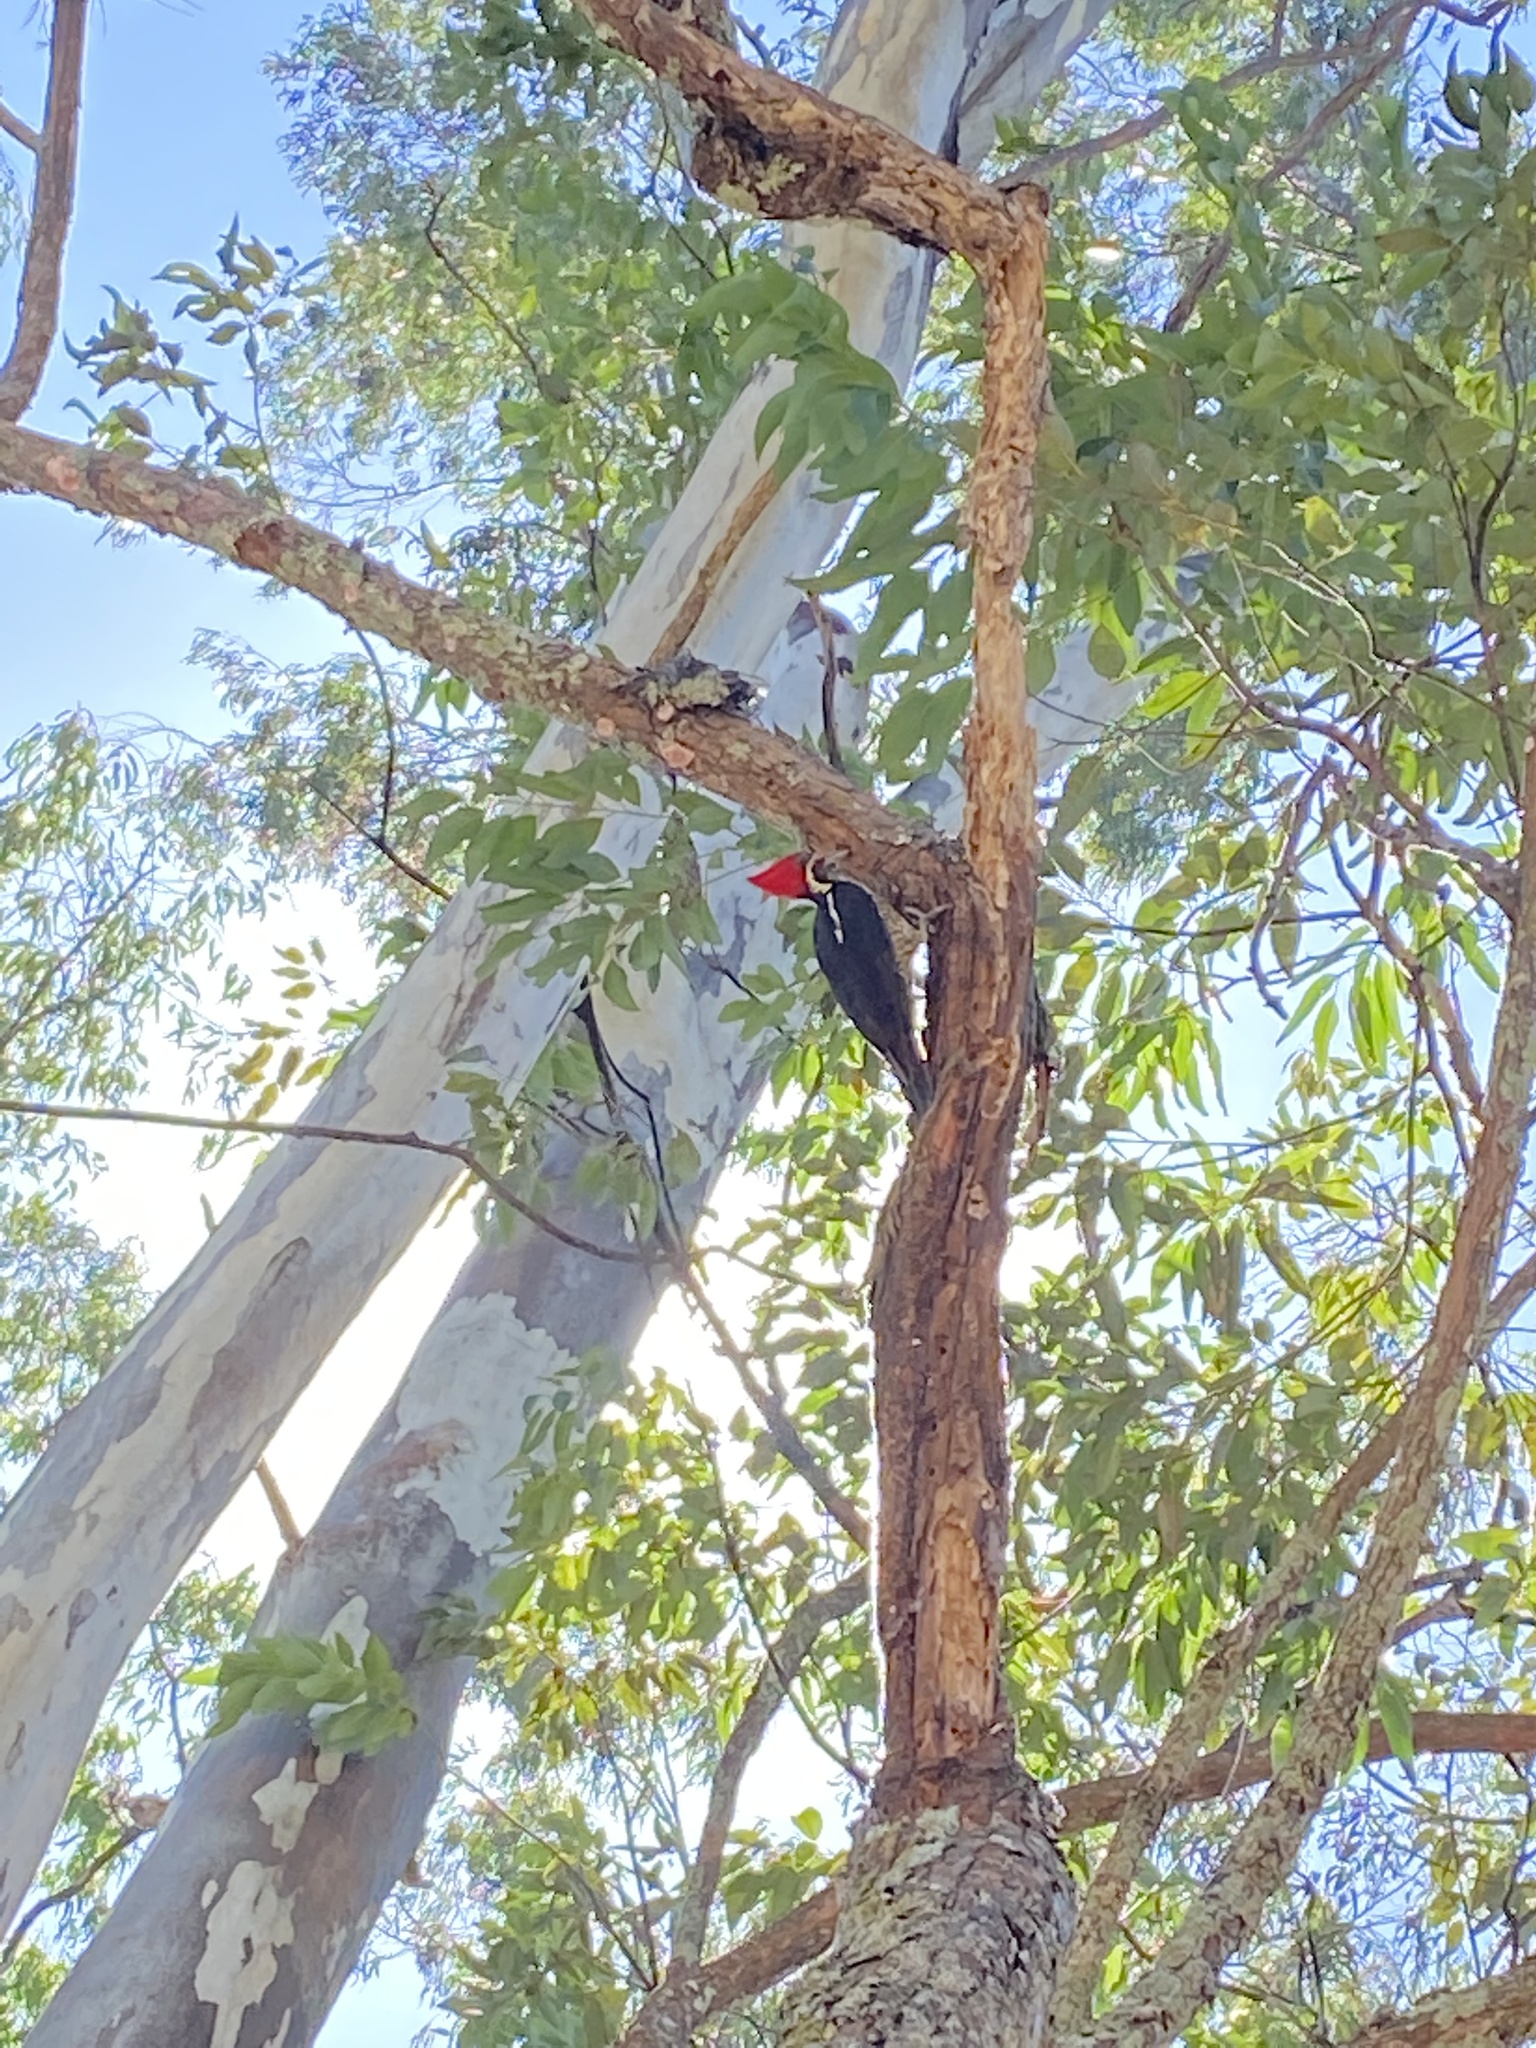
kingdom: Animalia
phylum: Chordata
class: Aves
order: Piciformes
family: Picidae
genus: Dryocopus
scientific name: Dryocopus lineatus
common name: Lineated woodpecker
